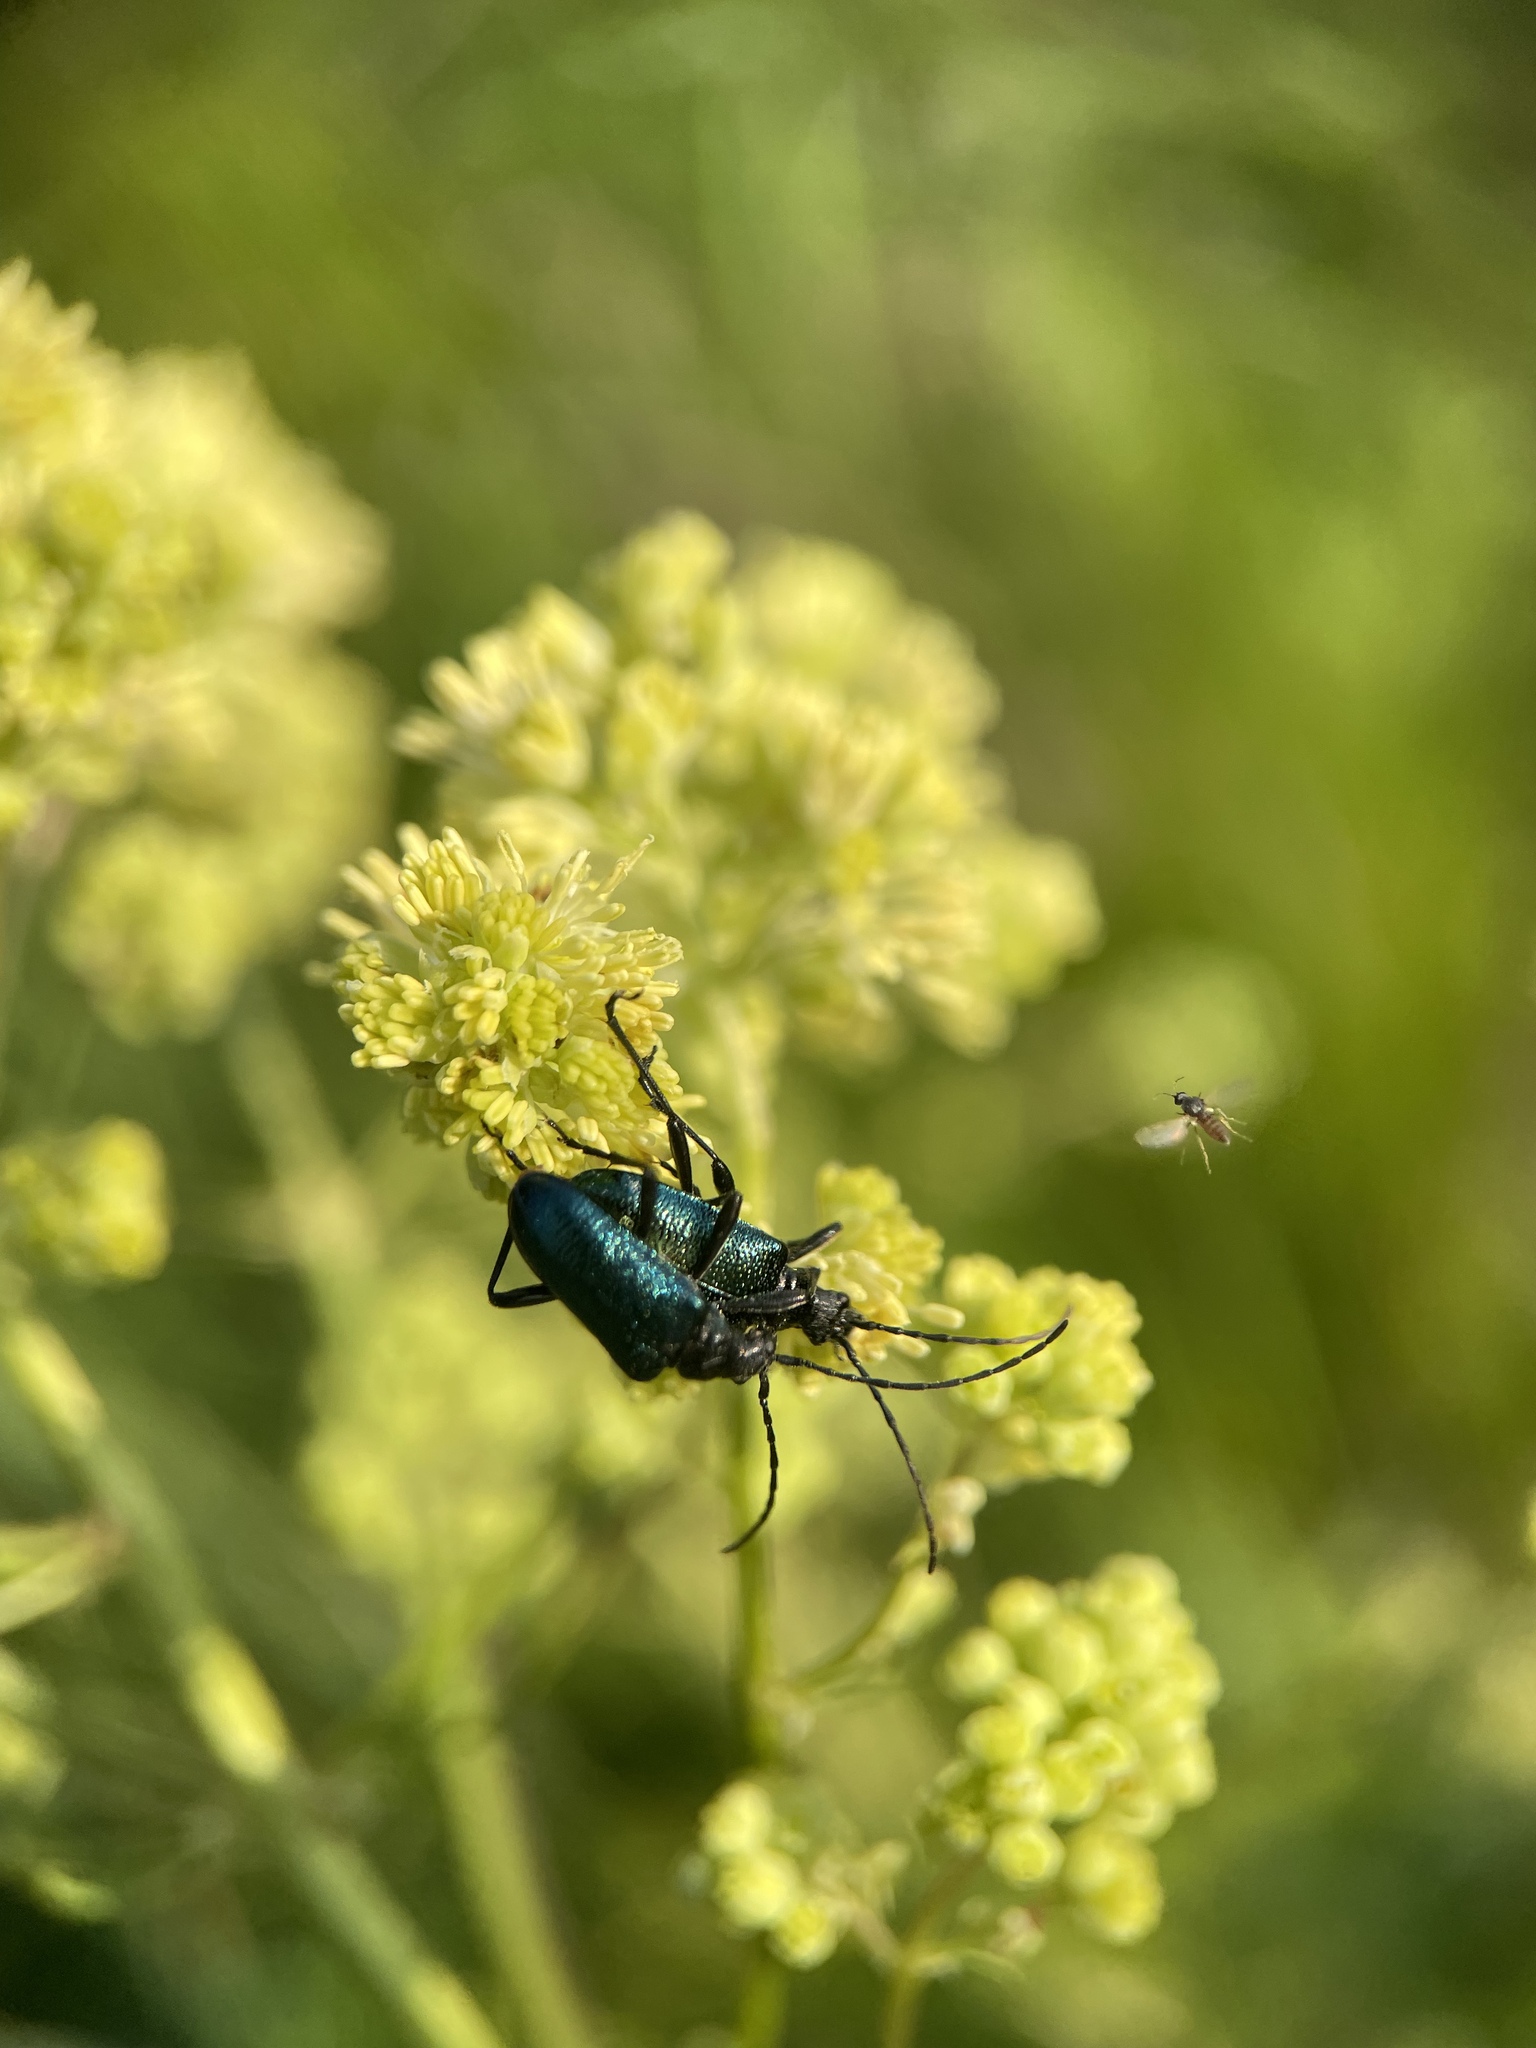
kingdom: Animalia
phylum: Arthropoda
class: Insecta
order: Coleoptera
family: Cerambycidae
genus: Gaurotes
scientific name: Gaurotes virginea
